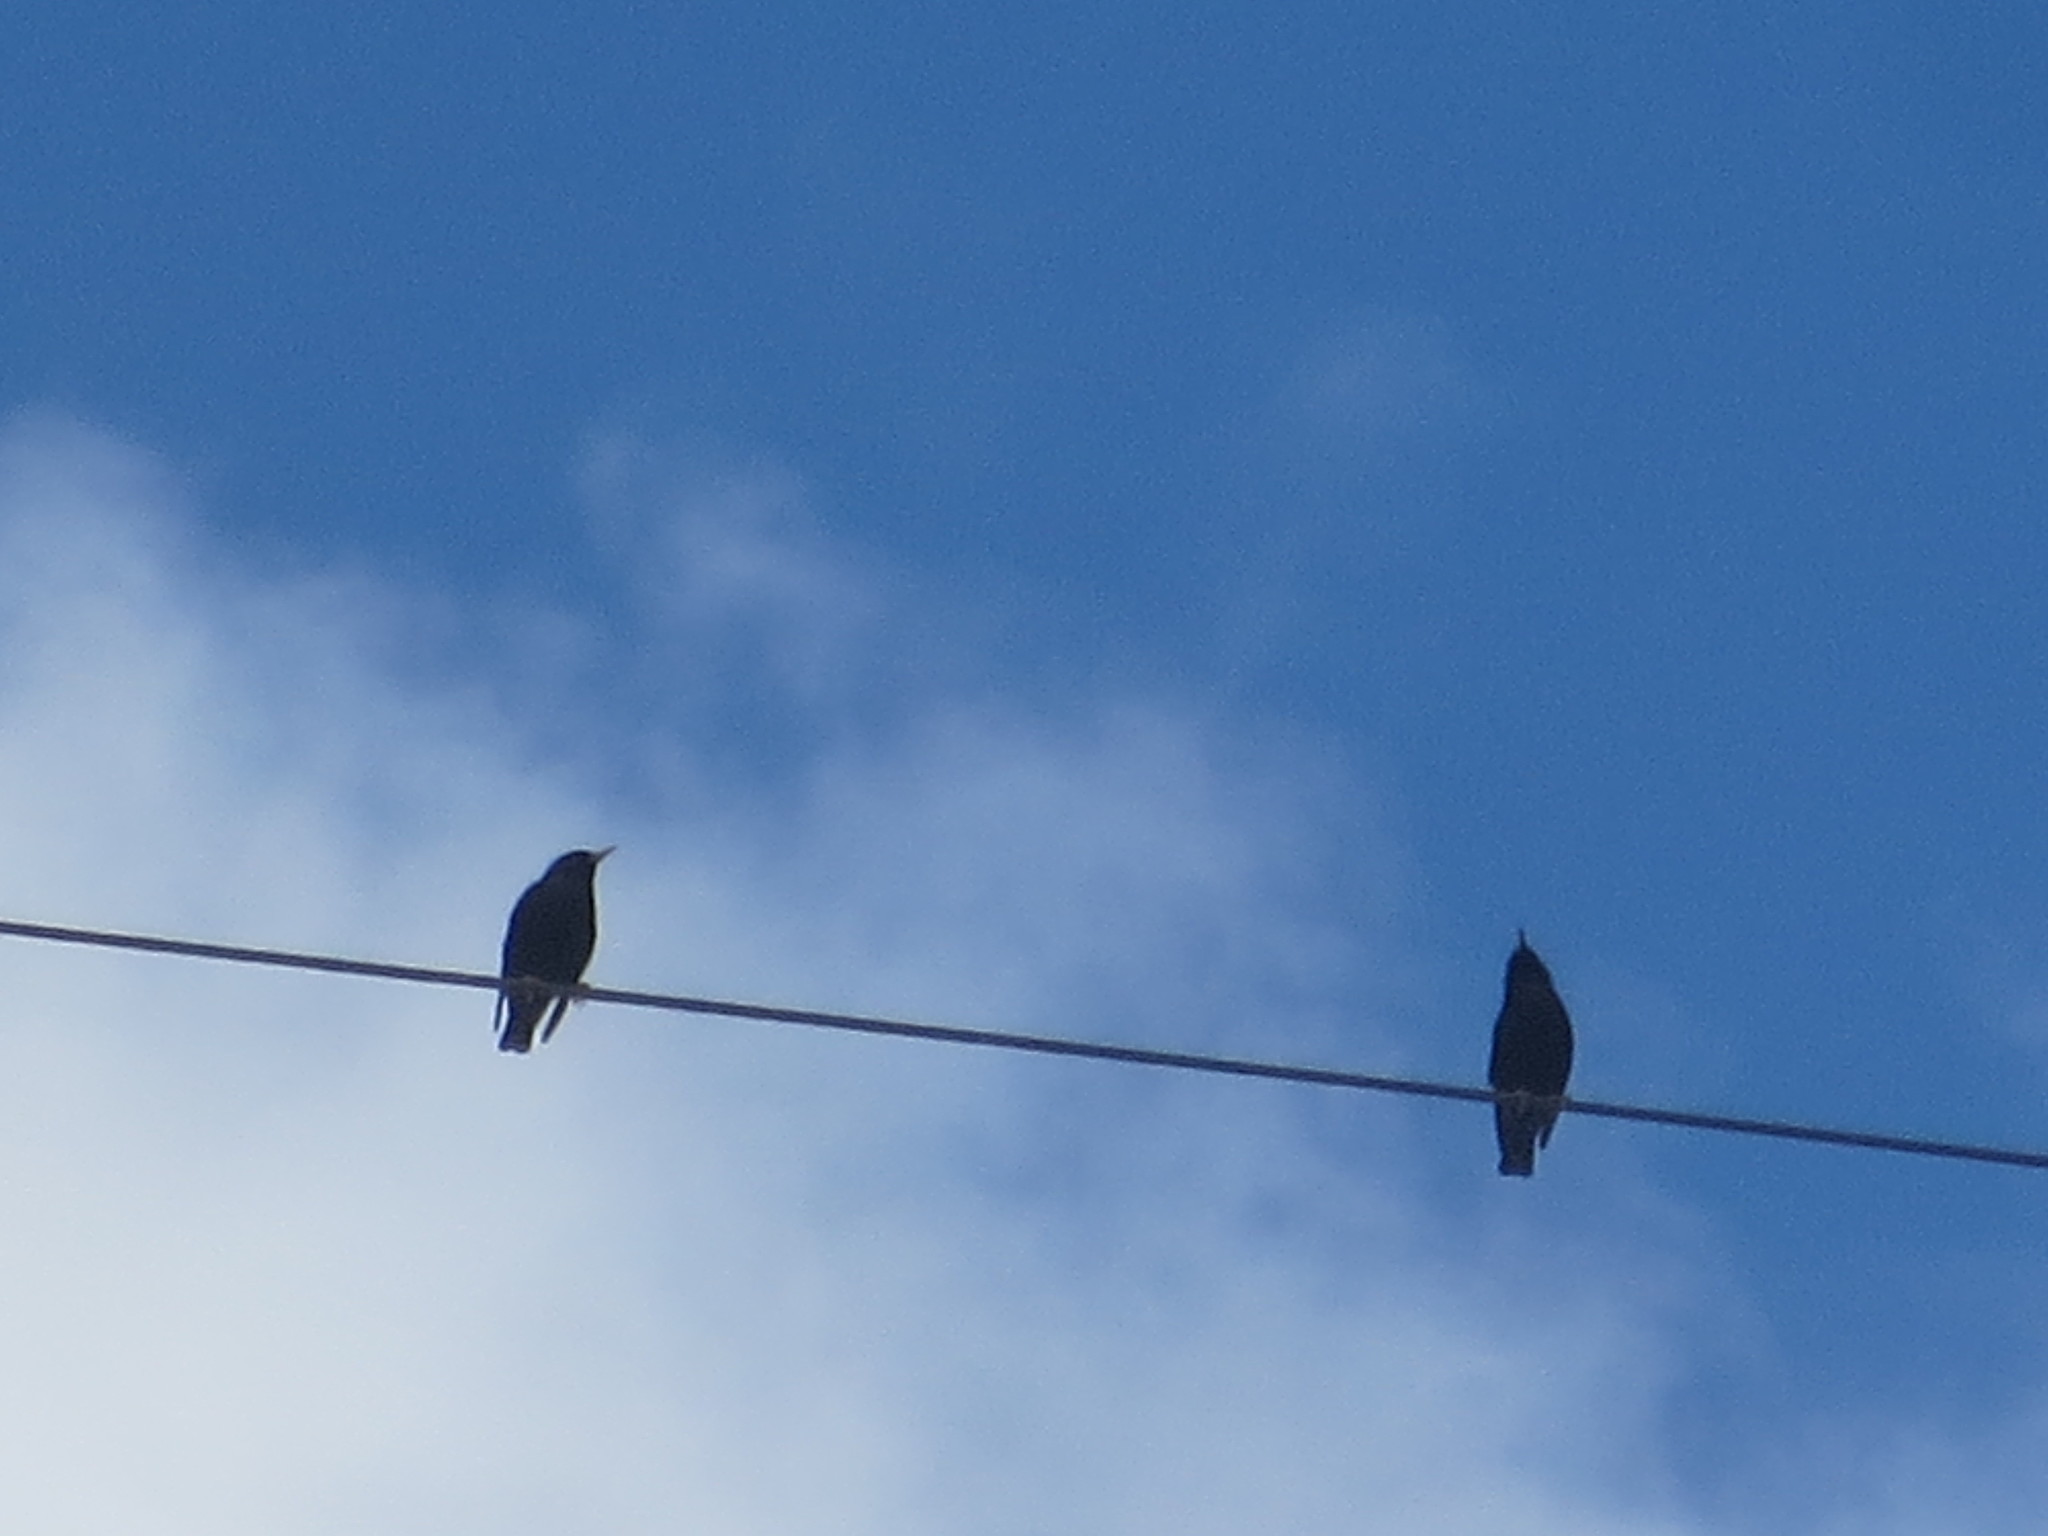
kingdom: Animalia
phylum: Chordata
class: Aves
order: Passeriformes
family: Sturnidae
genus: Sturnus
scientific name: Sturnus vulgaris
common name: Common starling
